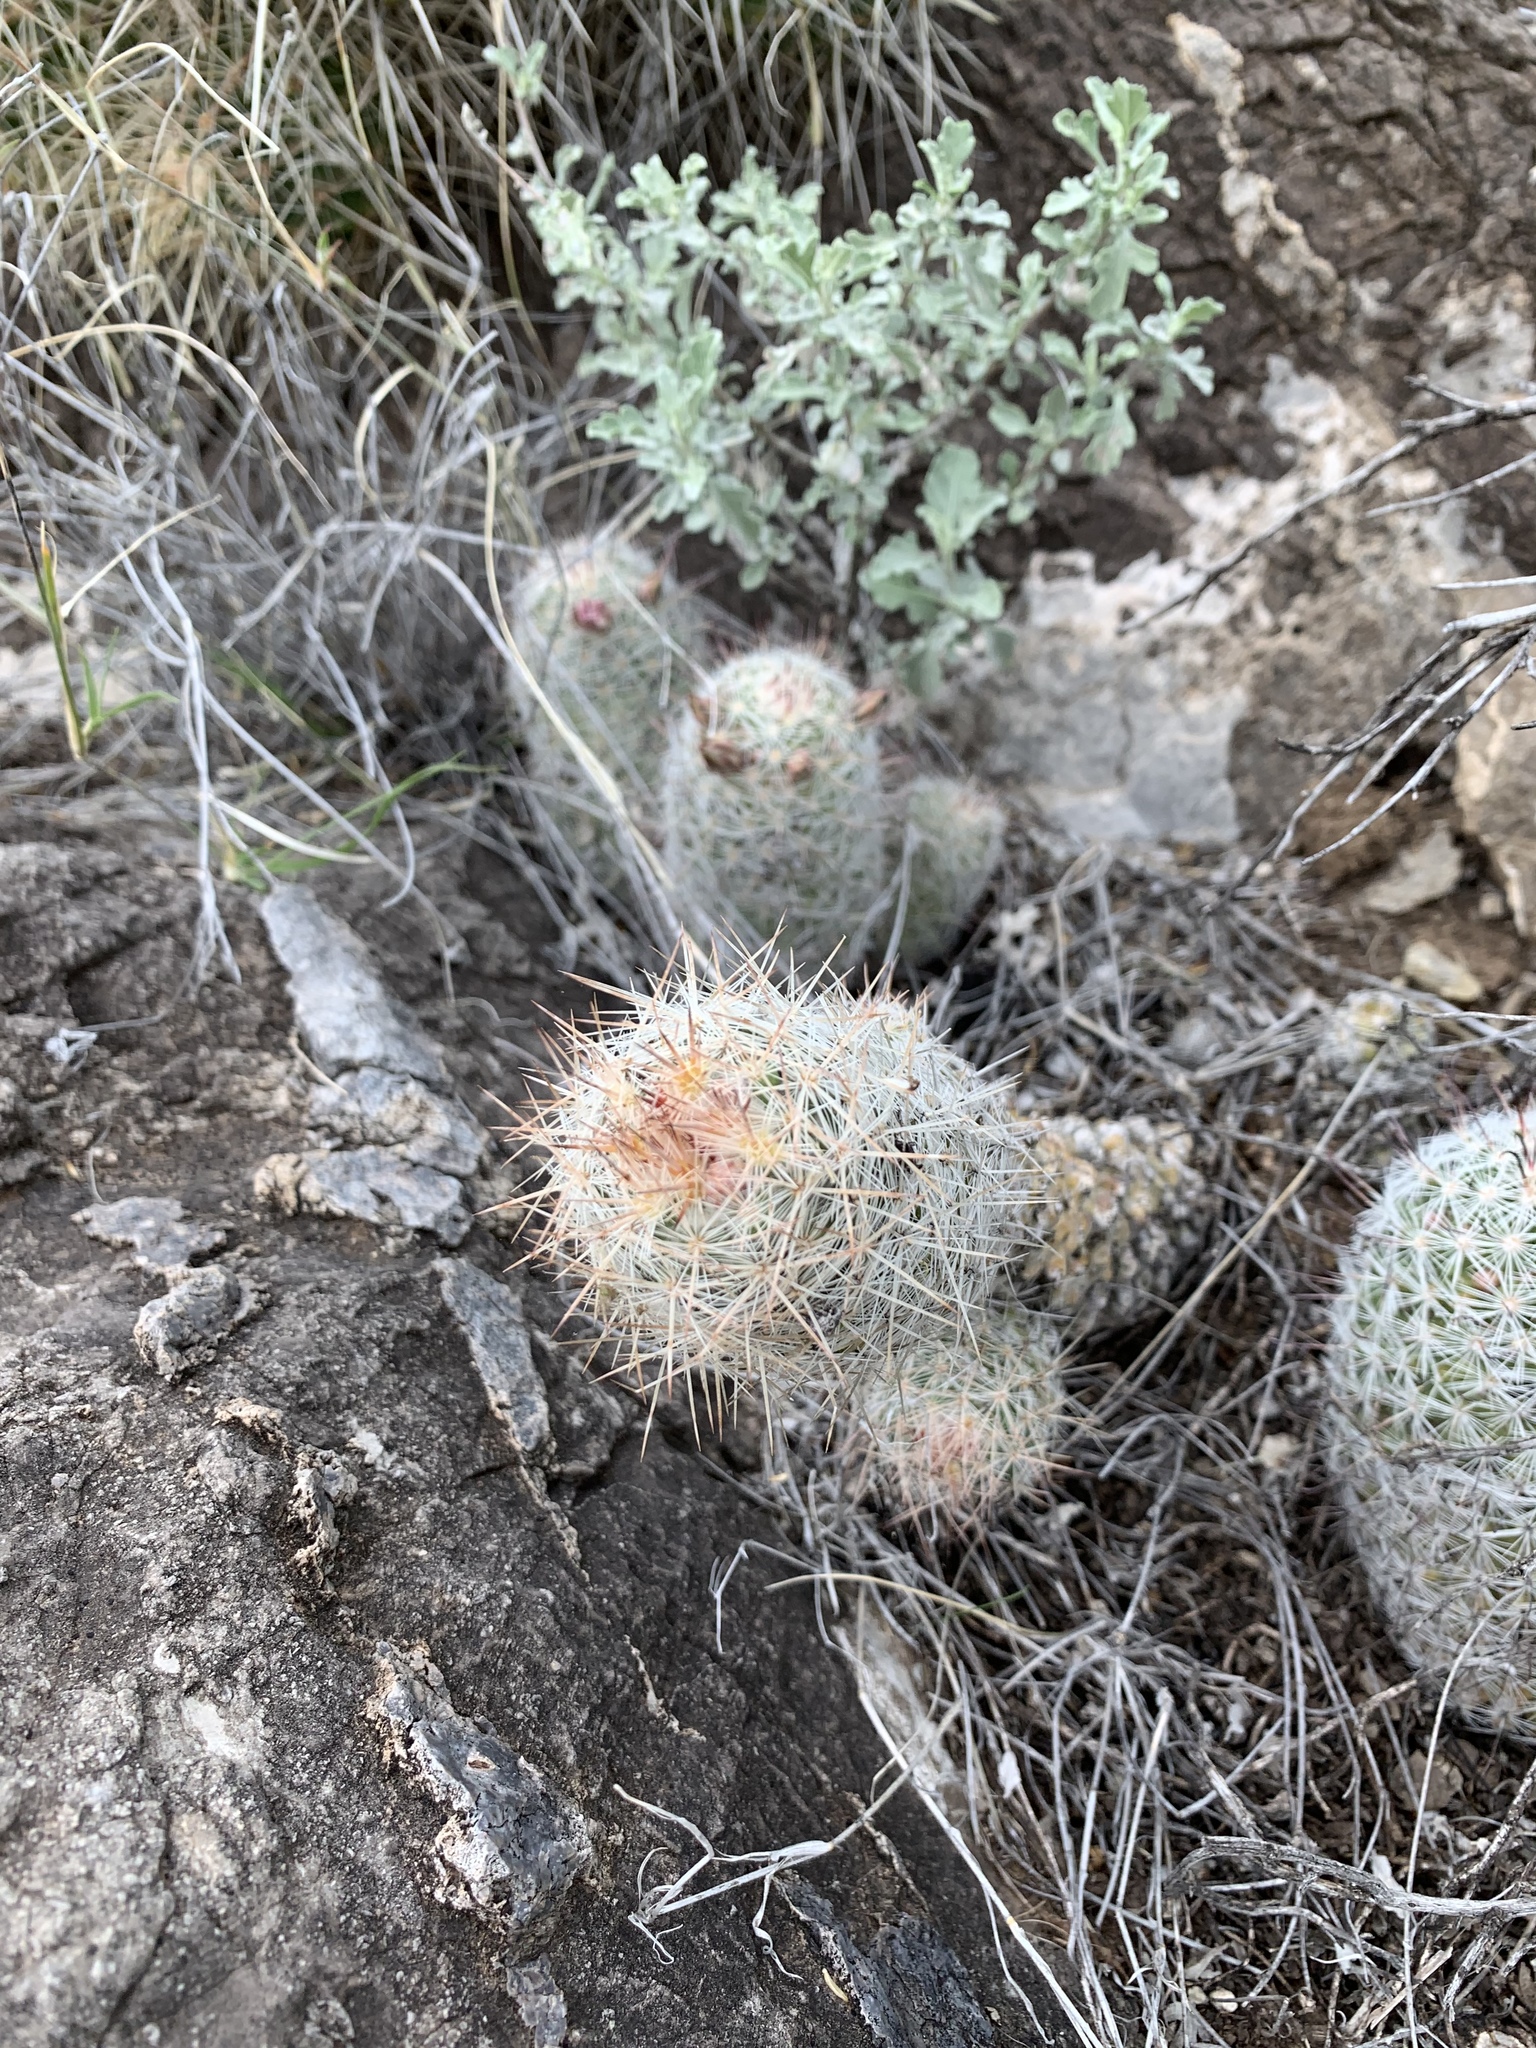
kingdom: Plantae
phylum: Tracheophyta
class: Magnoliopsida
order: Caryophyllales
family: Cactaceae
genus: Pelecyphora
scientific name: Pelecyphora tuberculosa
